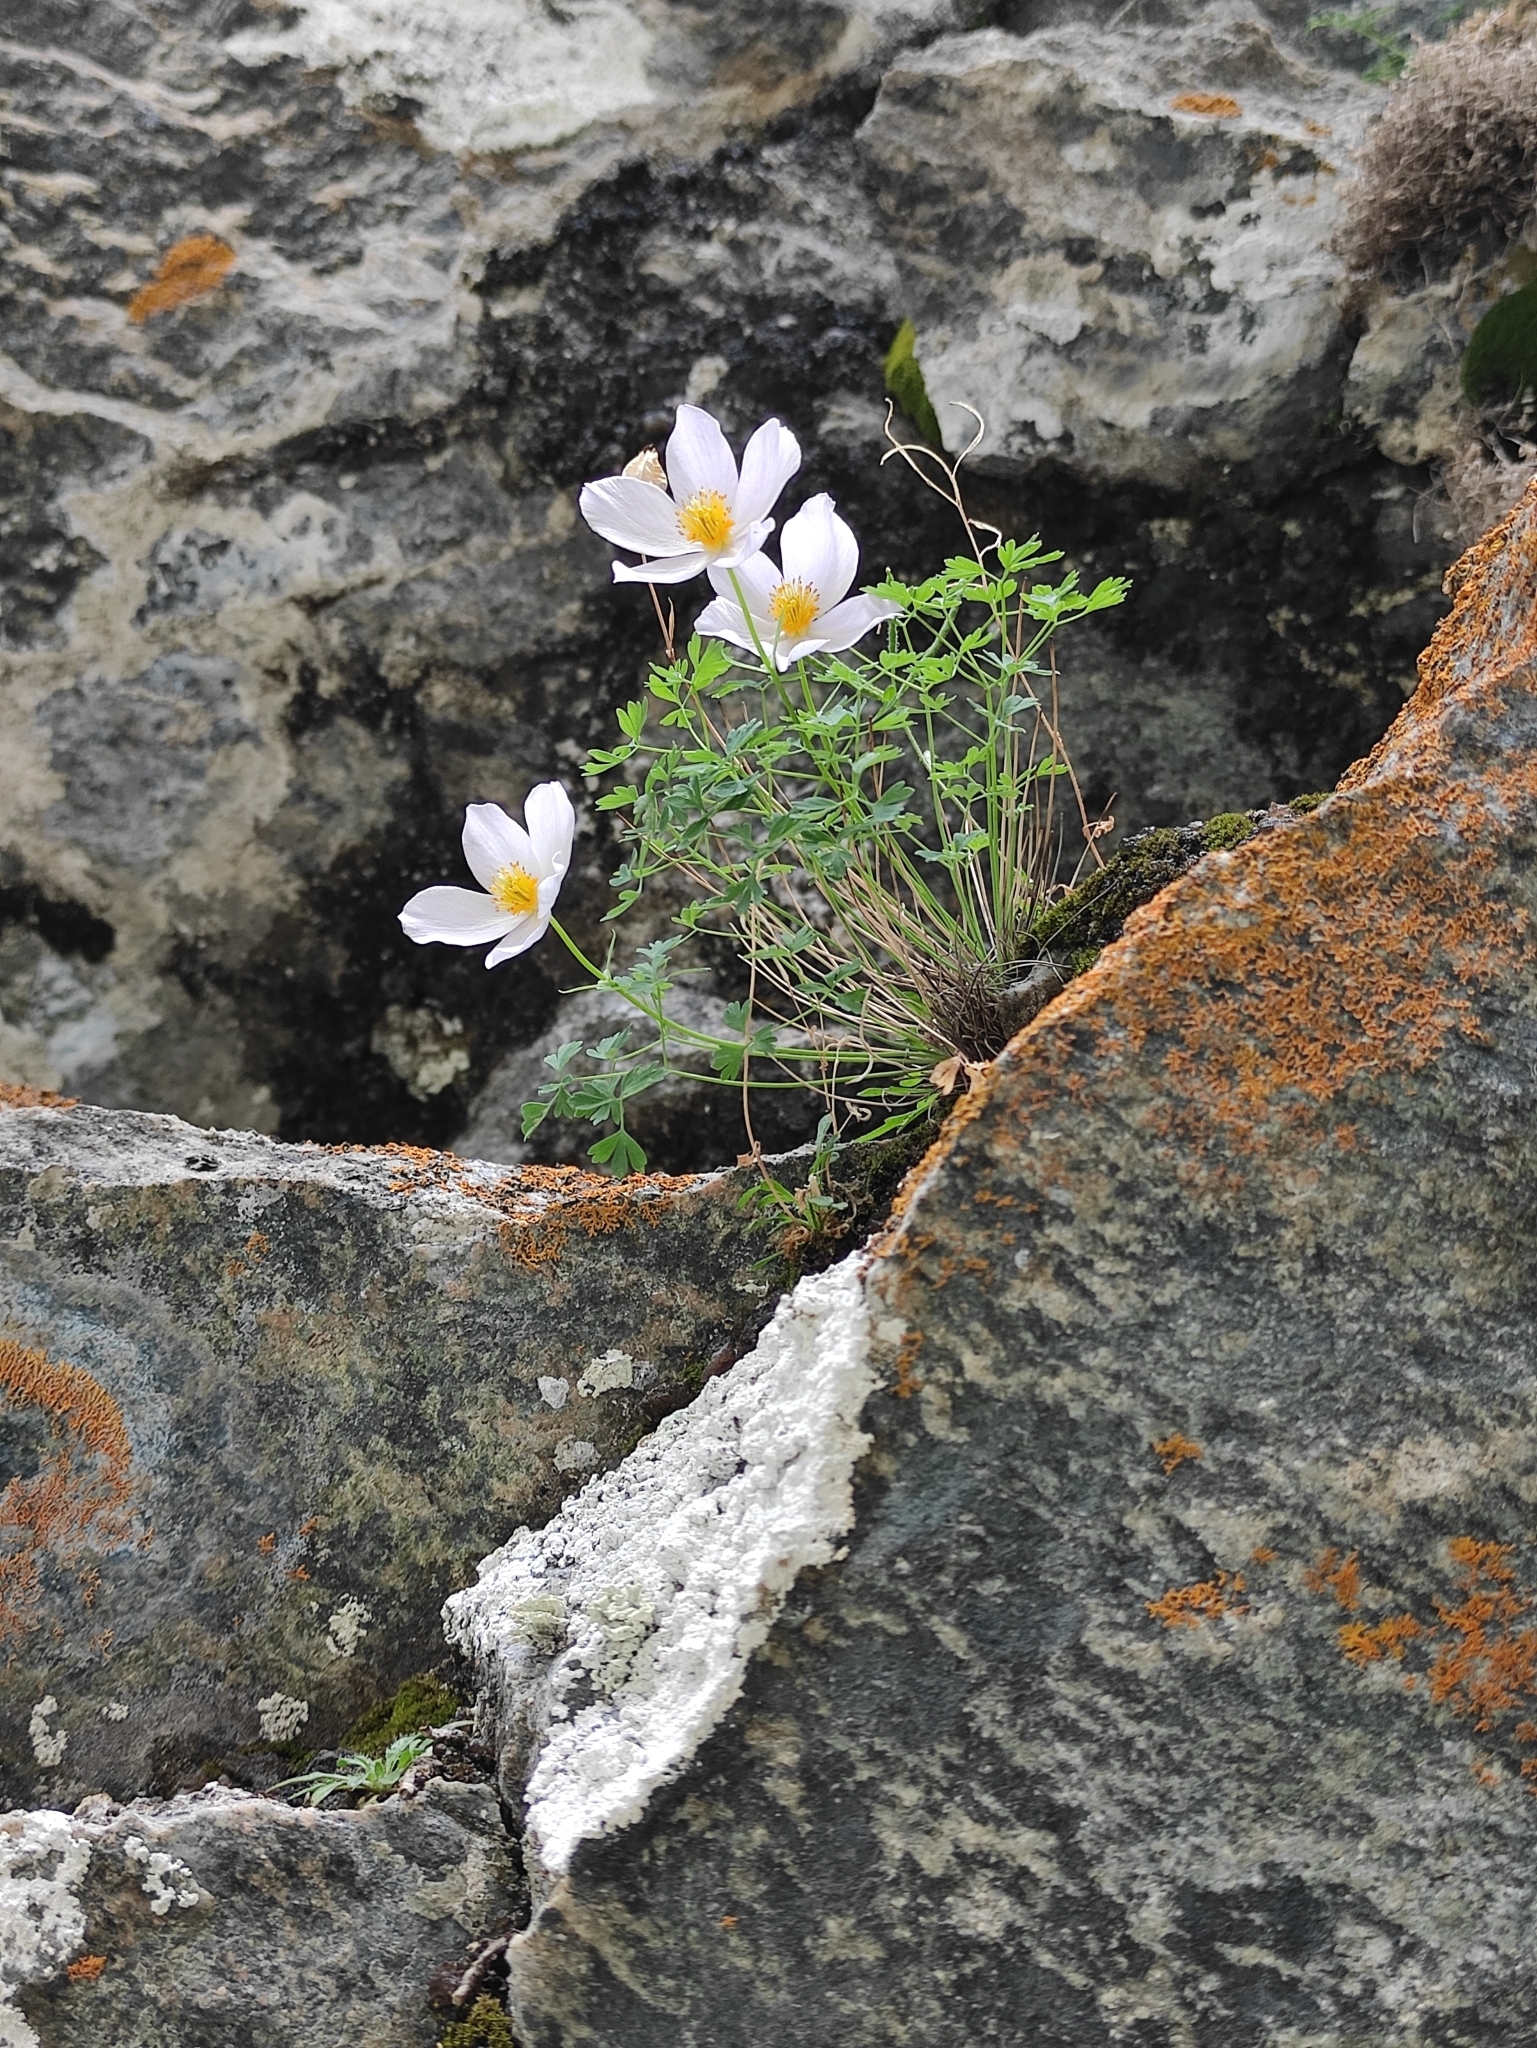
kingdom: Plantae
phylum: Tracheophyta
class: Magnoliopsida
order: Ranunculales
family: Ranunculaceae
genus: Paraquilegia
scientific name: Paraquilegia microphylla
